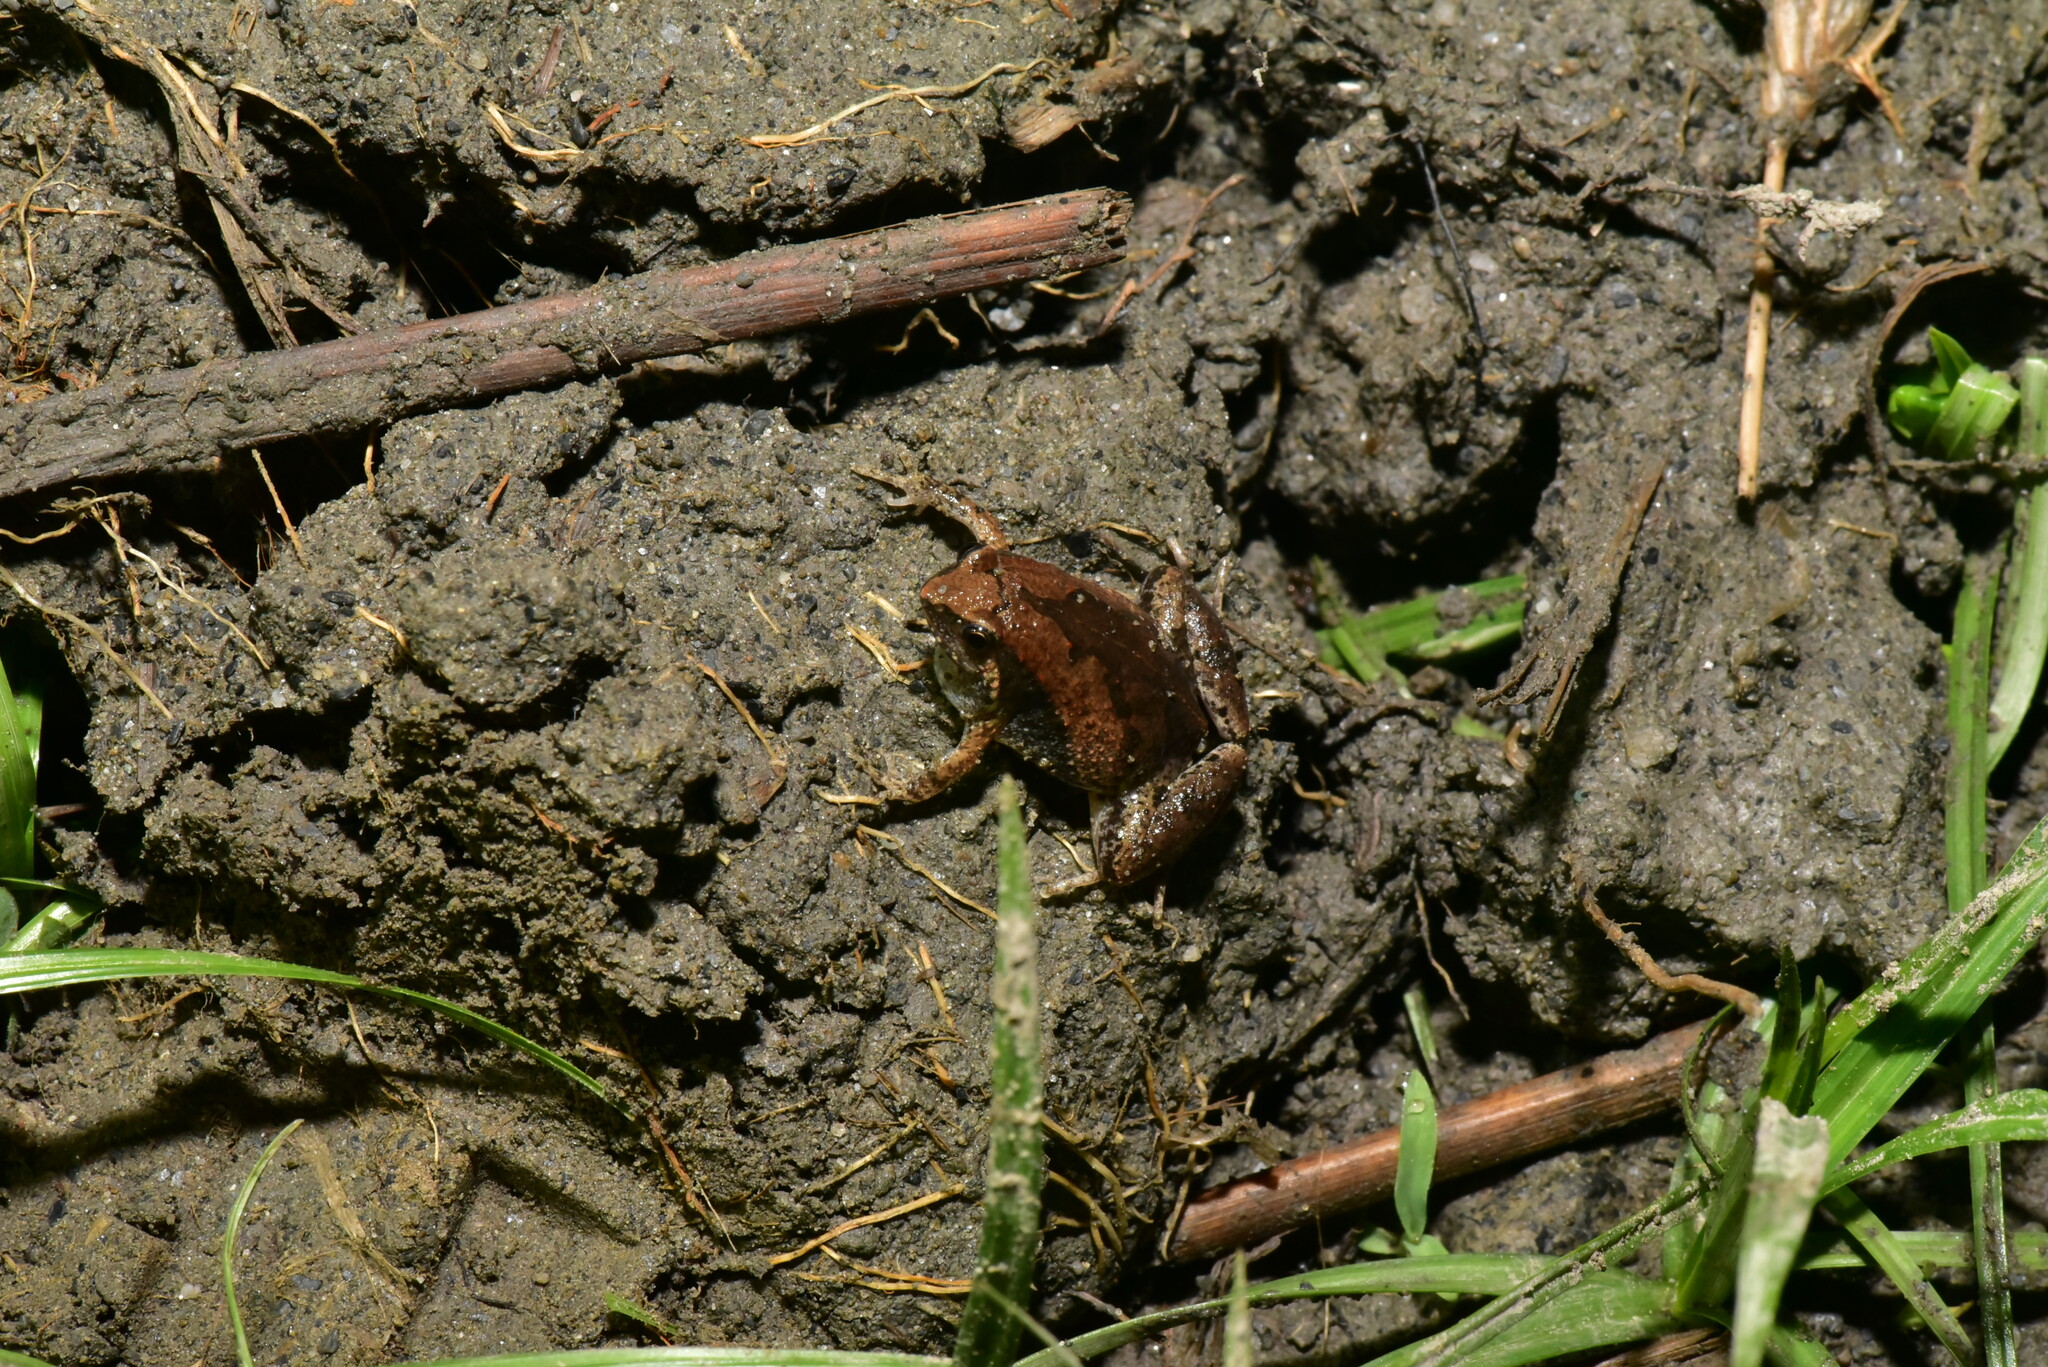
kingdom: Animalia
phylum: Chordata
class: Amphibia
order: Anura
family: Microhylidae
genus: Microhyla
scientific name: Microhyla fissipes
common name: Ornate narrow-mouthed frog
